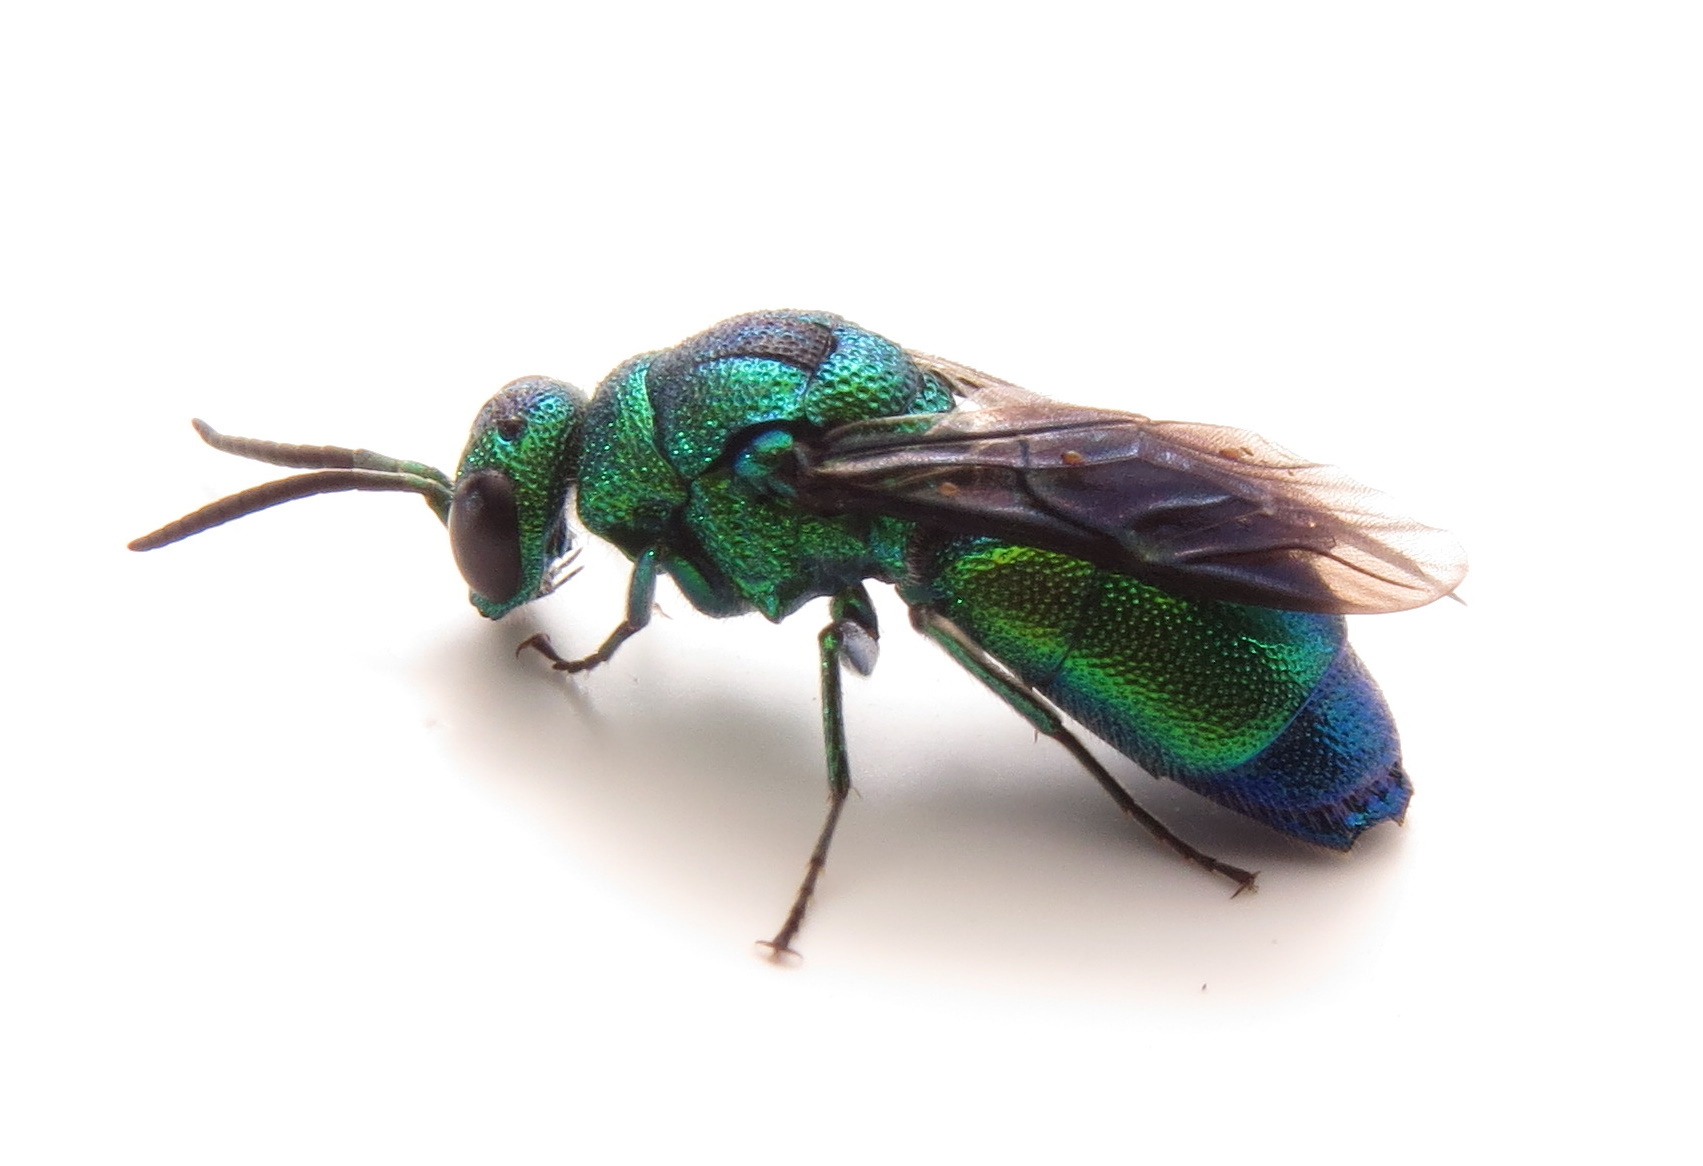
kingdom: Animalia
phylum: Arthropoda
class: Insecta
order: Hymenoptera
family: Chrysididae
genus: Chrysis
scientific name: Chrysis angolensis
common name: Cuckoo wasp
